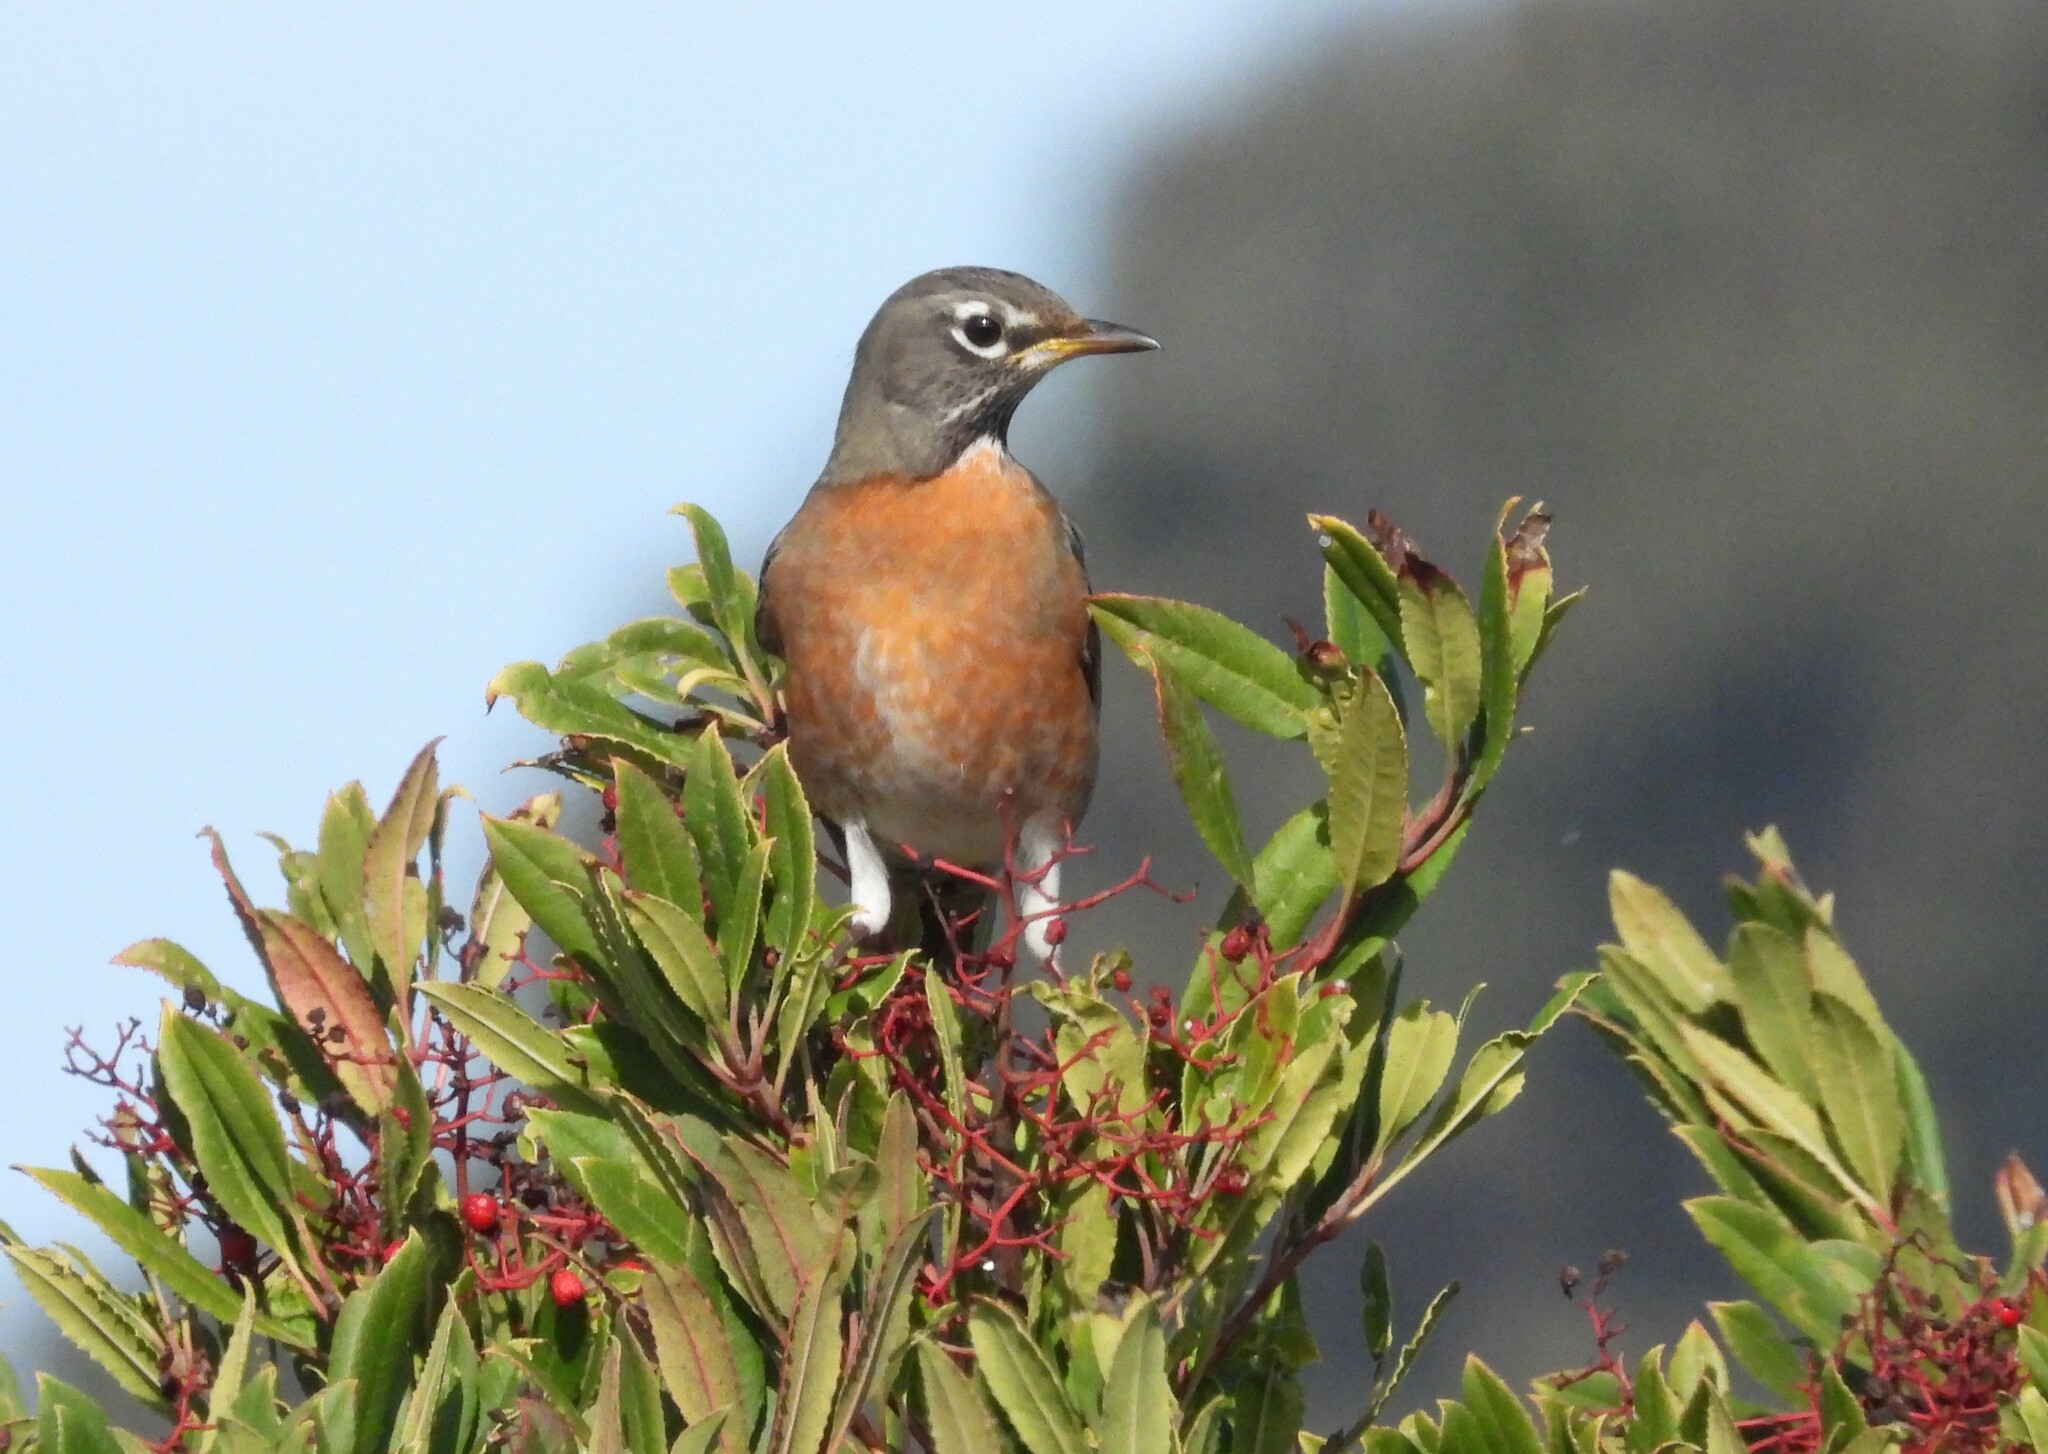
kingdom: Animalia
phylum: Chordata
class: Aves
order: Passeriformes
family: Turdidae
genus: Turdus
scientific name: Turdus migratorius
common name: American robin
